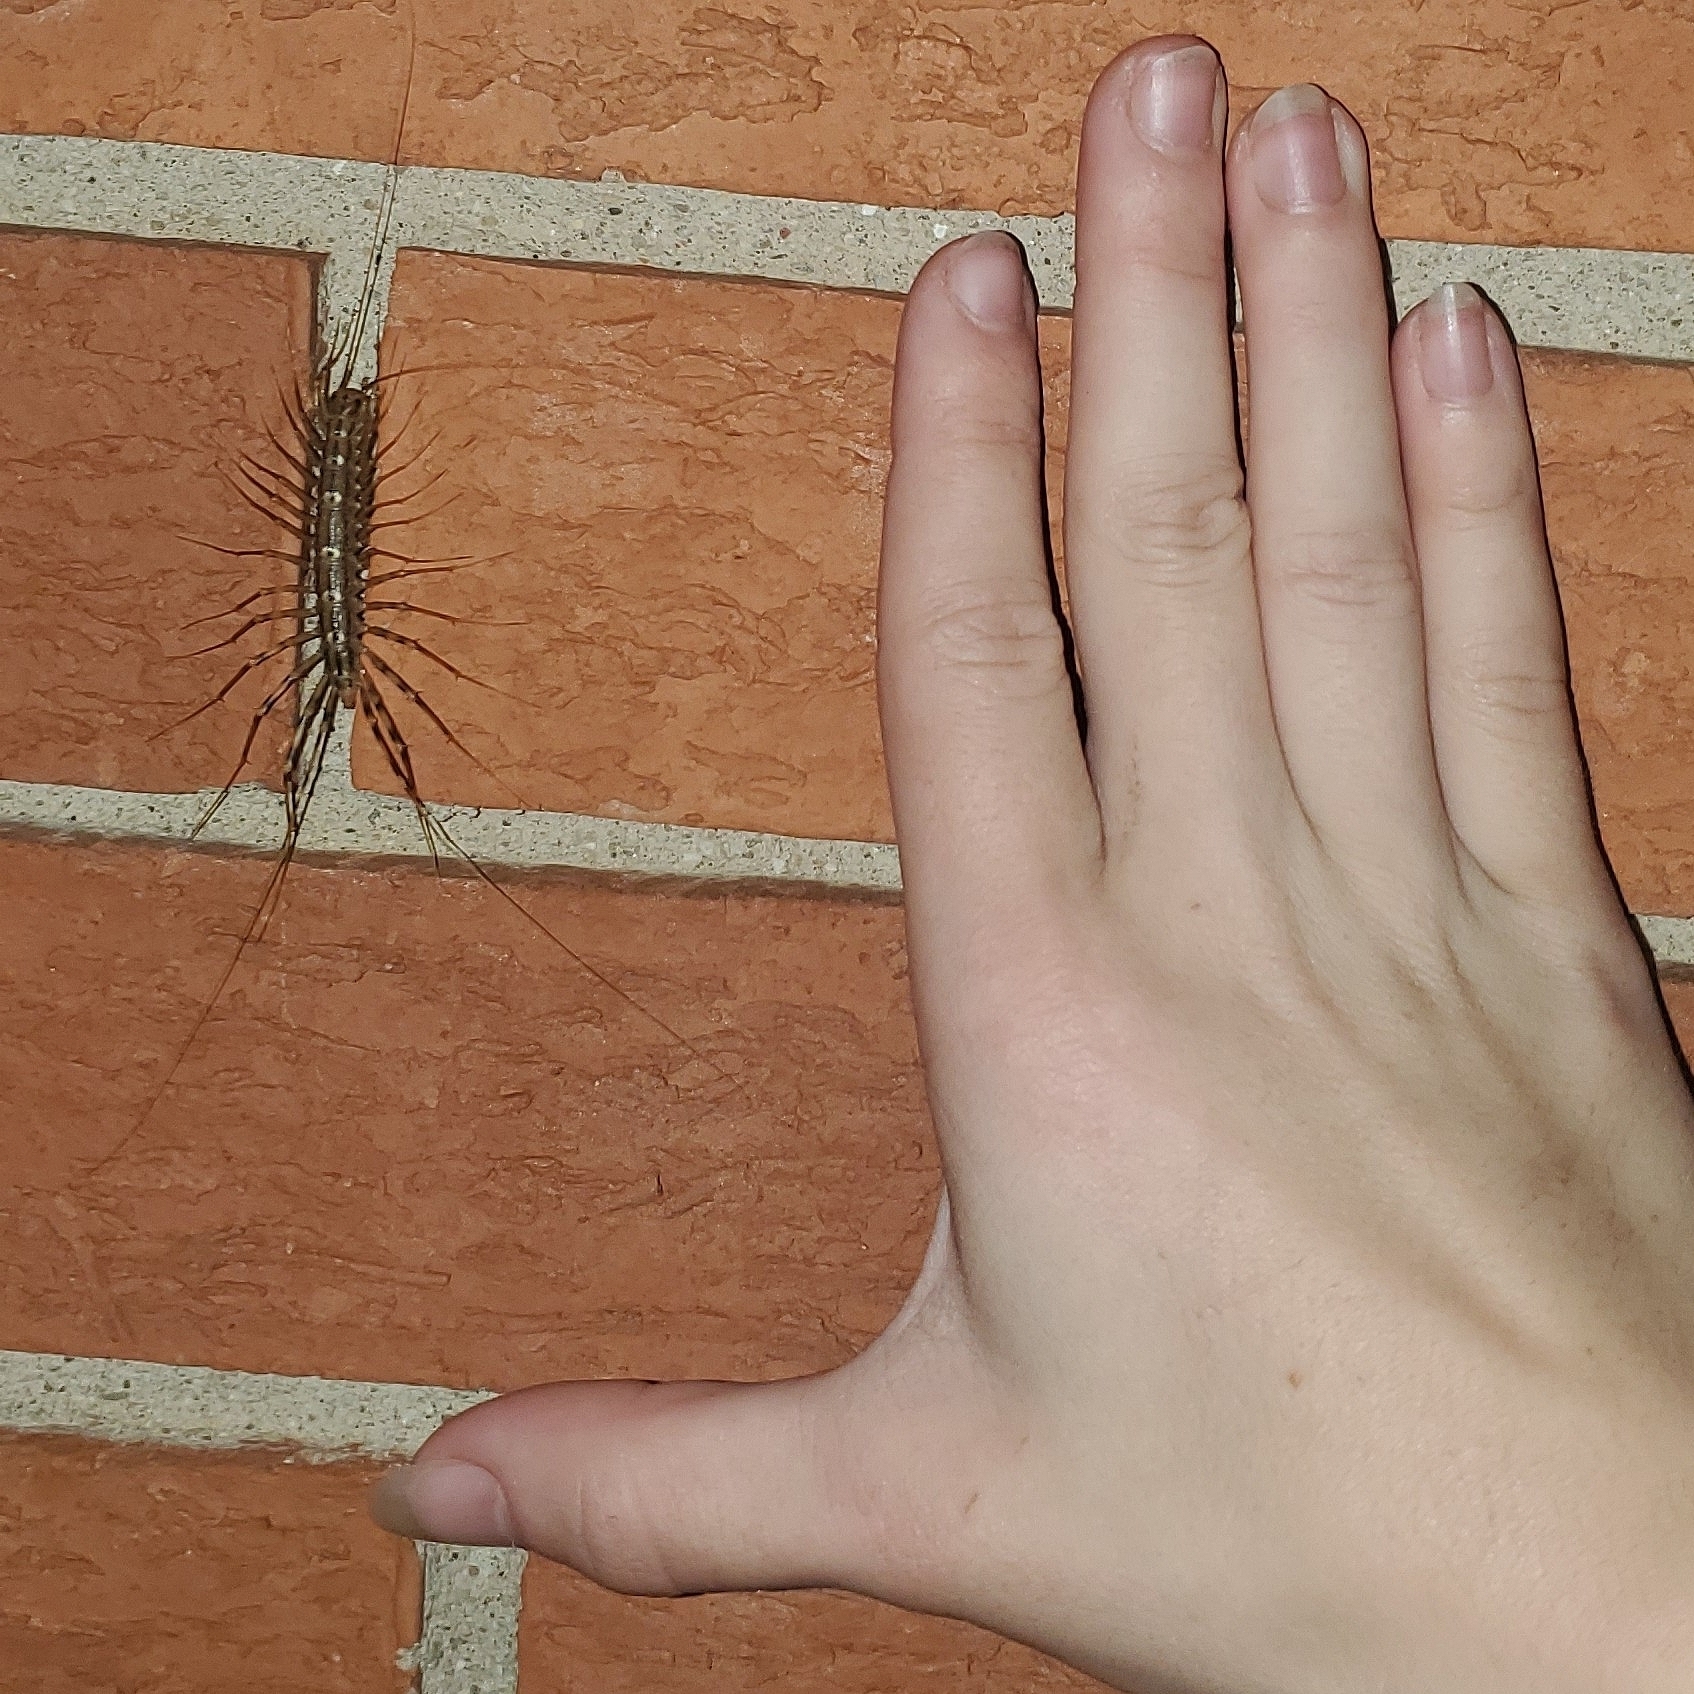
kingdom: Animalia
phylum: Arthropoda
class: Chilopoda
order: Scutigeromorpha
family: Scutigeridae
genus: Scutigera
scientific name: Scutigera coleoptrata
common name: House centipede
